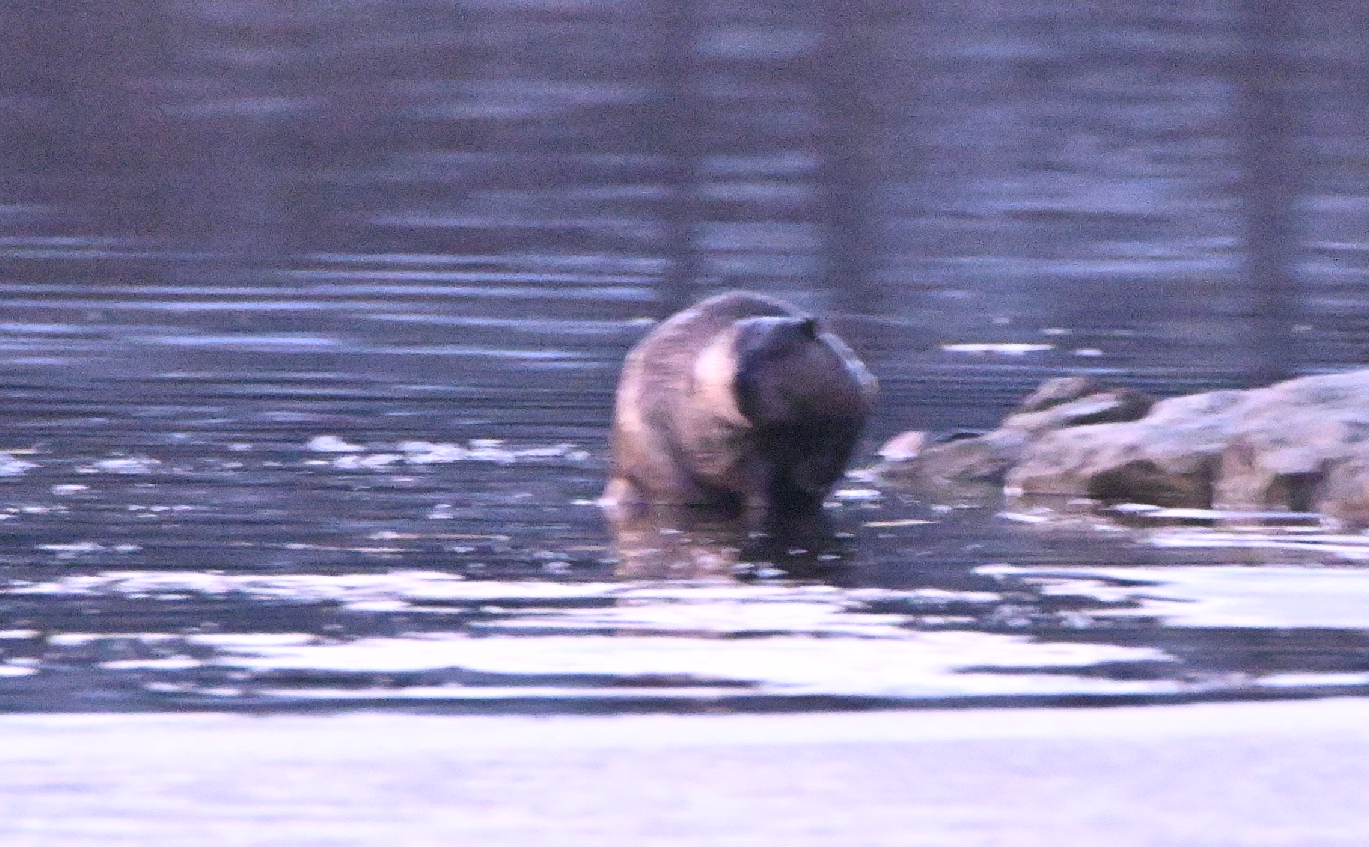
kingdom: Animalia
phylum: Chordata
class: Mammalia
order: Rodentia
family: Cricetidae
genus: Ondatra
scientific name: Ondatra zibethicus
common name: Muskrat
